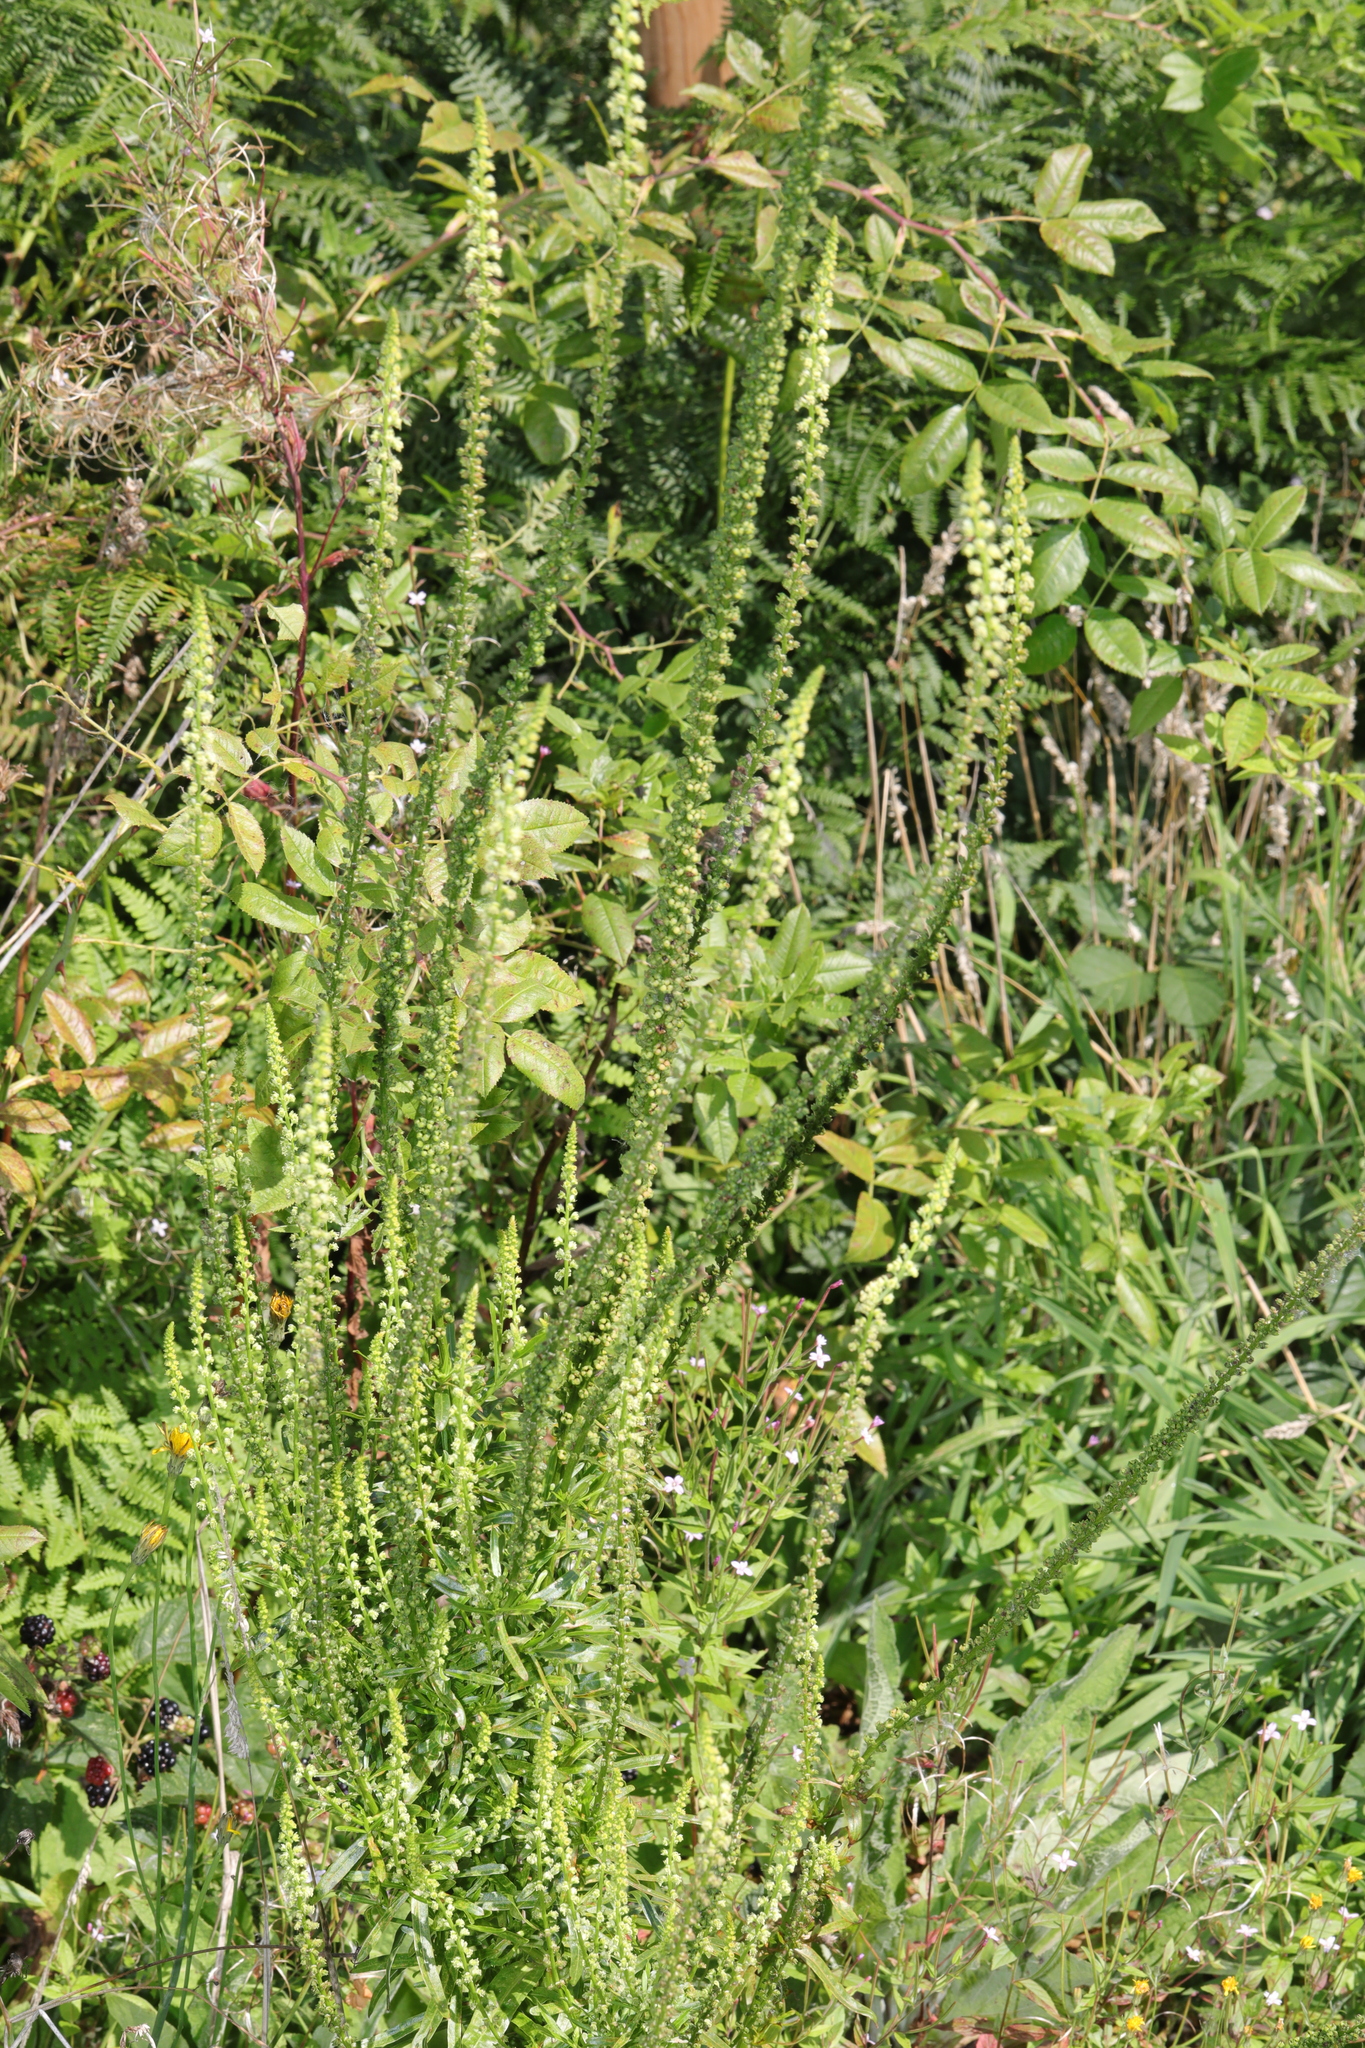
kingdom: Plantae
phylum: Tracheophyta
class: Magnoliopsida
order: Brassicales
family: Resedaceae
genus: Reseda
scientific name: Reseda luteola
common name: Weld
